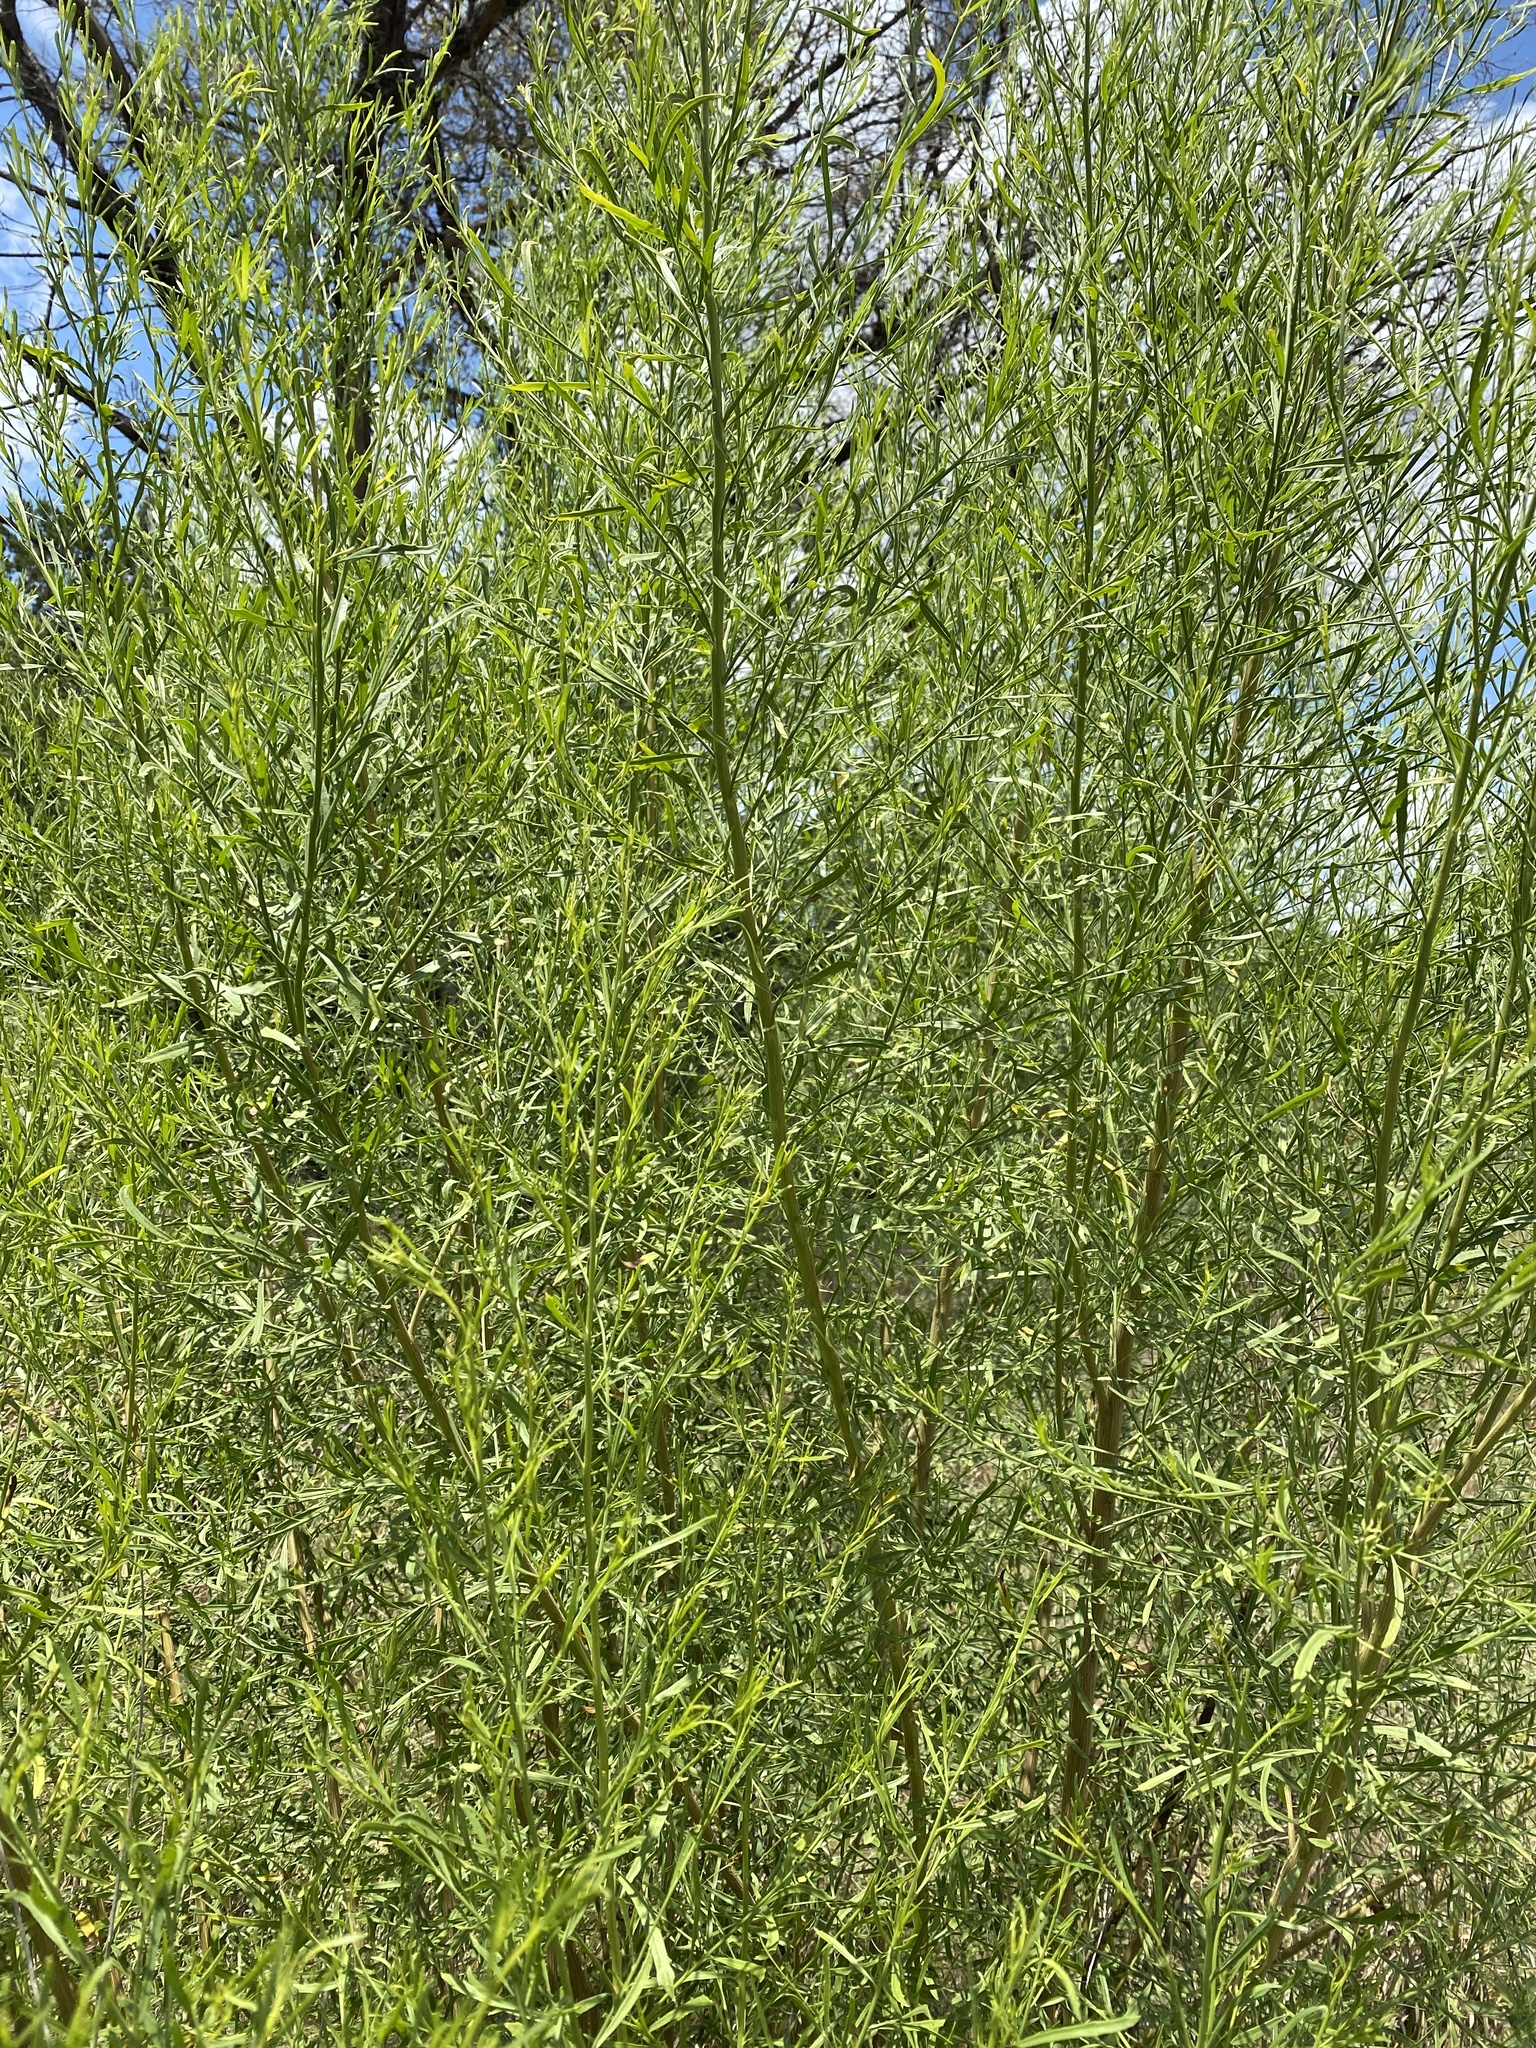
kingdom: Plantae
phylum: Tracheophyta
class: Magnoliopsida
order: Asterales
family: Asteraceae
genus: Baccharis
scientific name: Baccharis neglecta
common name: Roosevelt-weed
